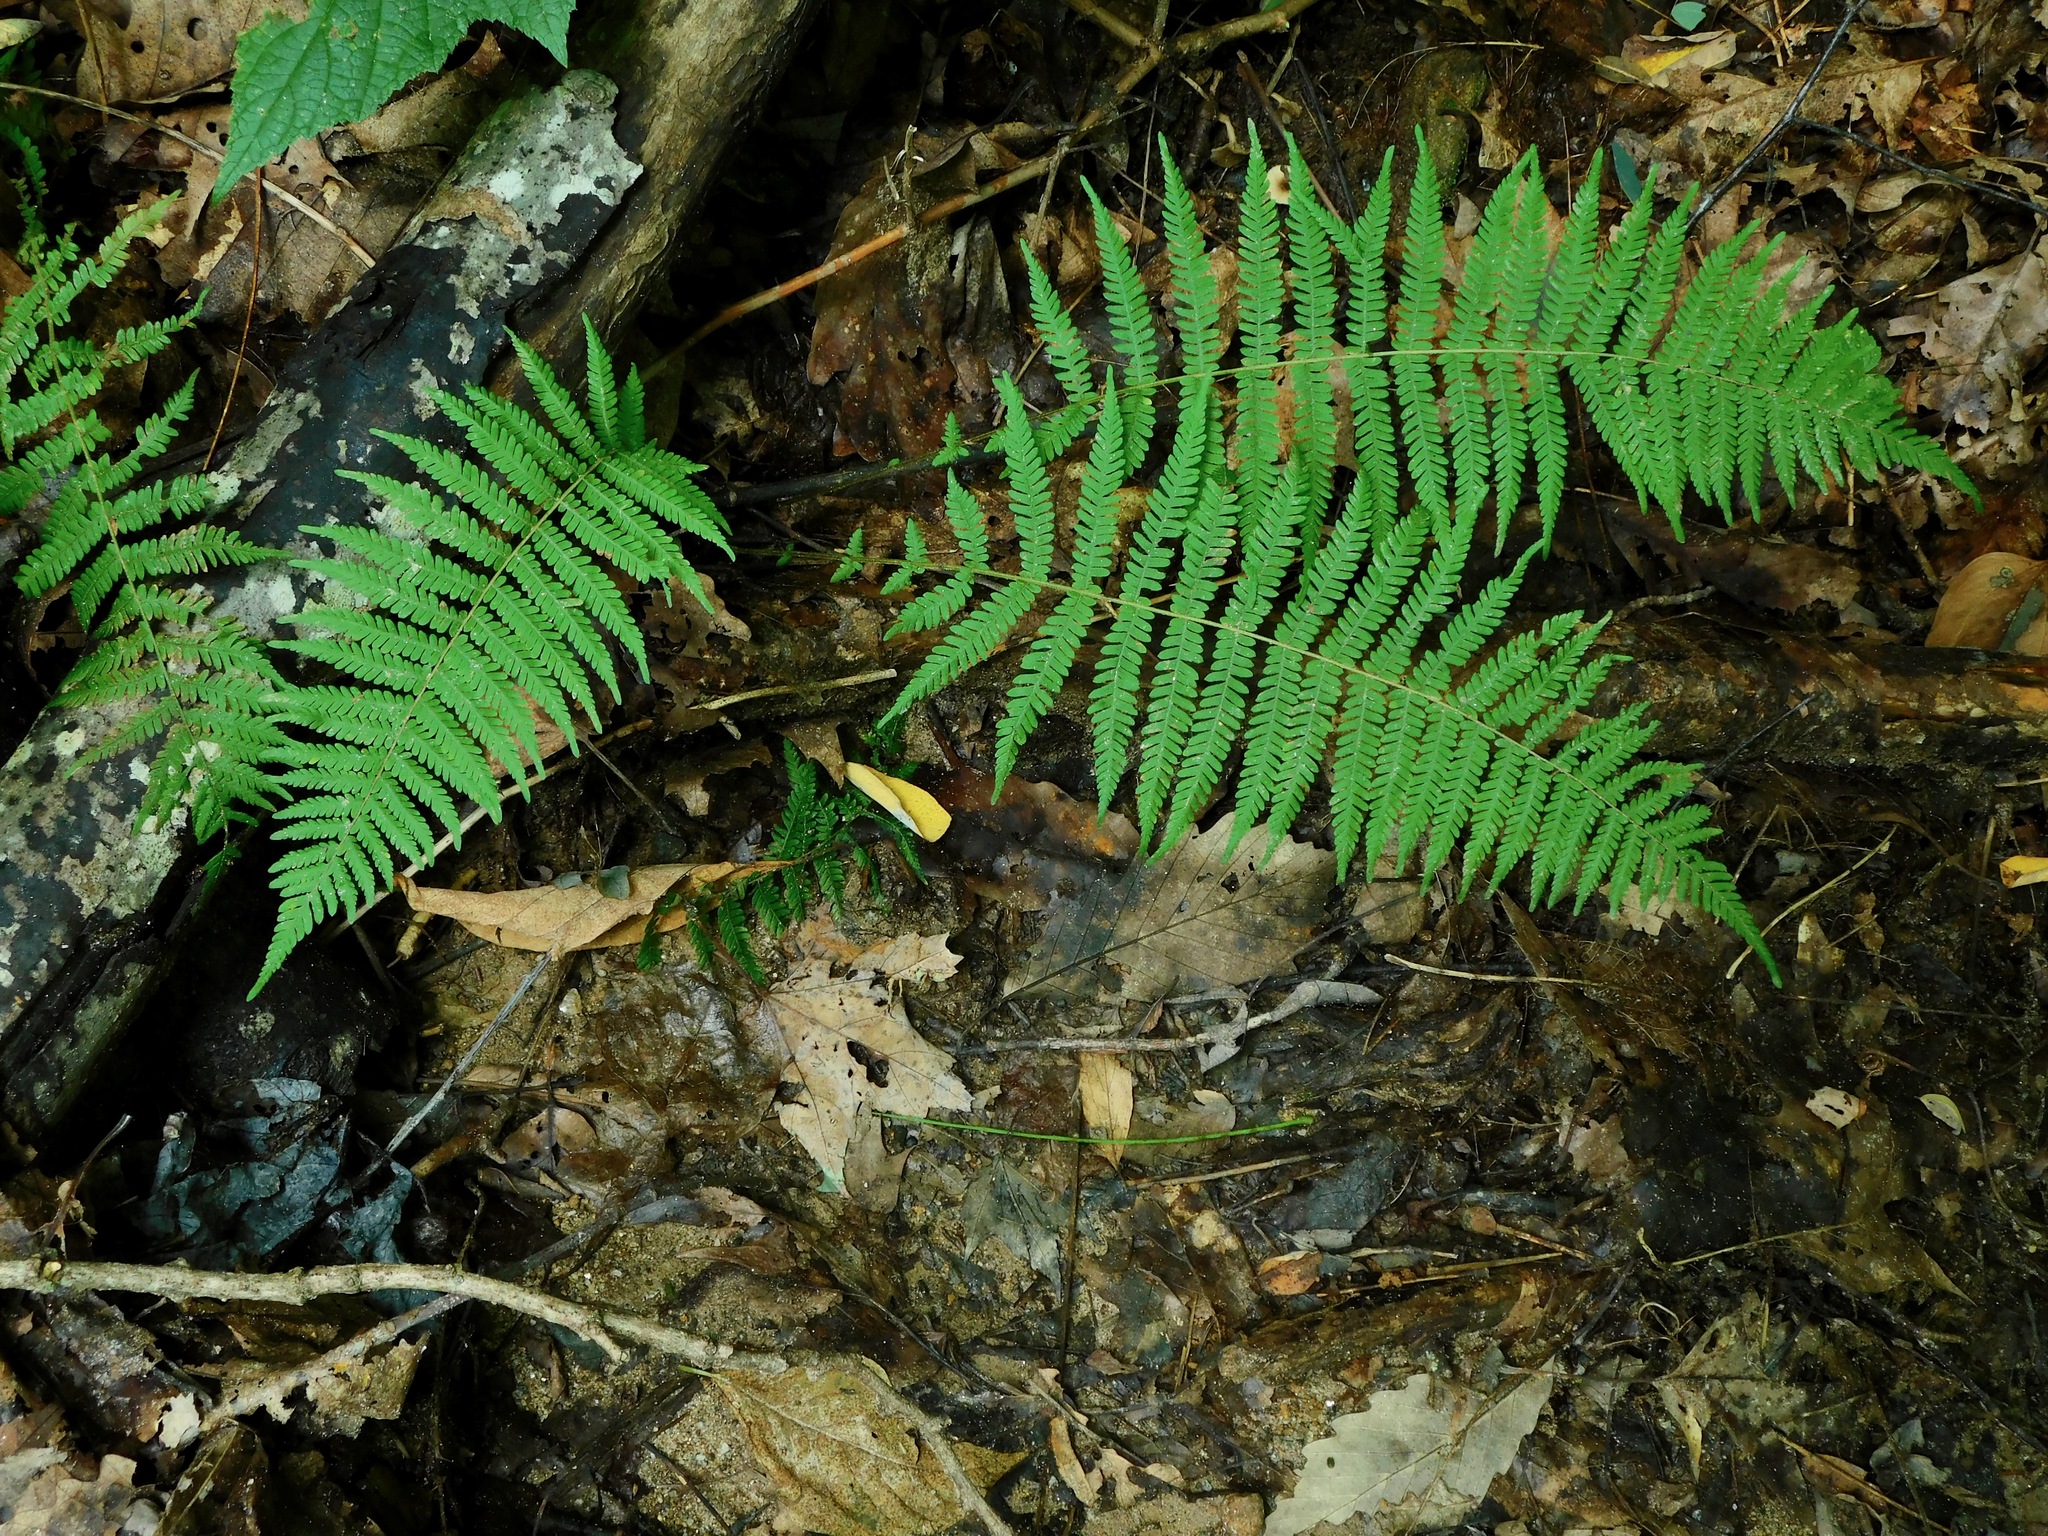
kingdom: Plantae
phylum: Tracheophyta
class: Polypodiopsida
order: Polypodiales
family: Thelypteridaceae
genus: Amauropelta
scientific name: Amauropelta noveboracensis
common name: New york fern
